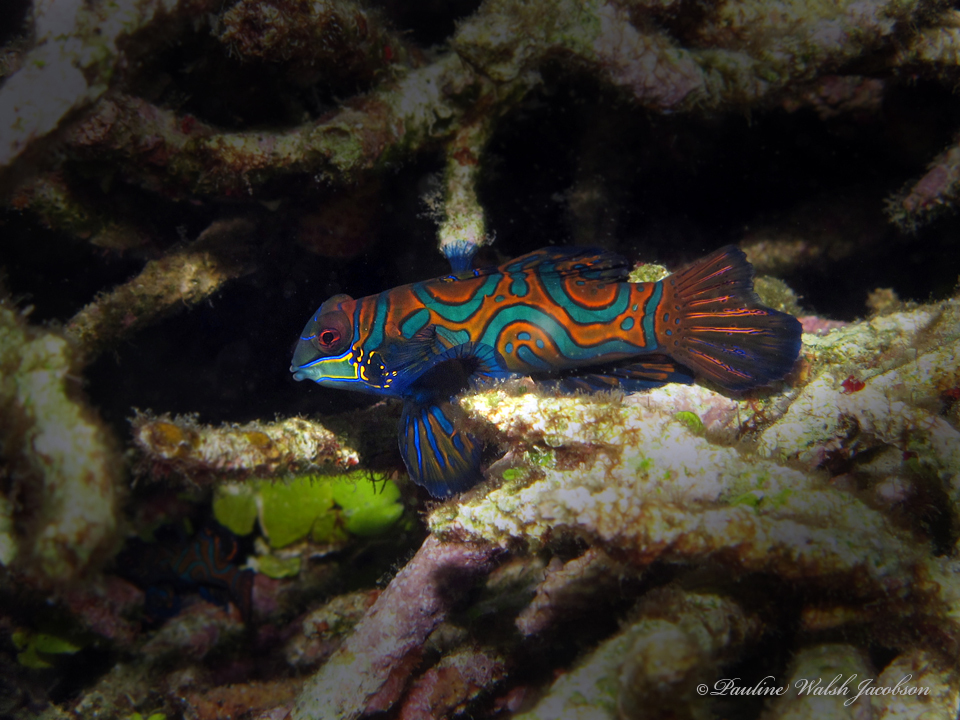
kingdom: Animalia
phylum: Chordata
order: Perciformes
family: Callionymidae
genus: Synchiropus
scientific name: Synchiropus splendidus
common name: Mandarinfish
